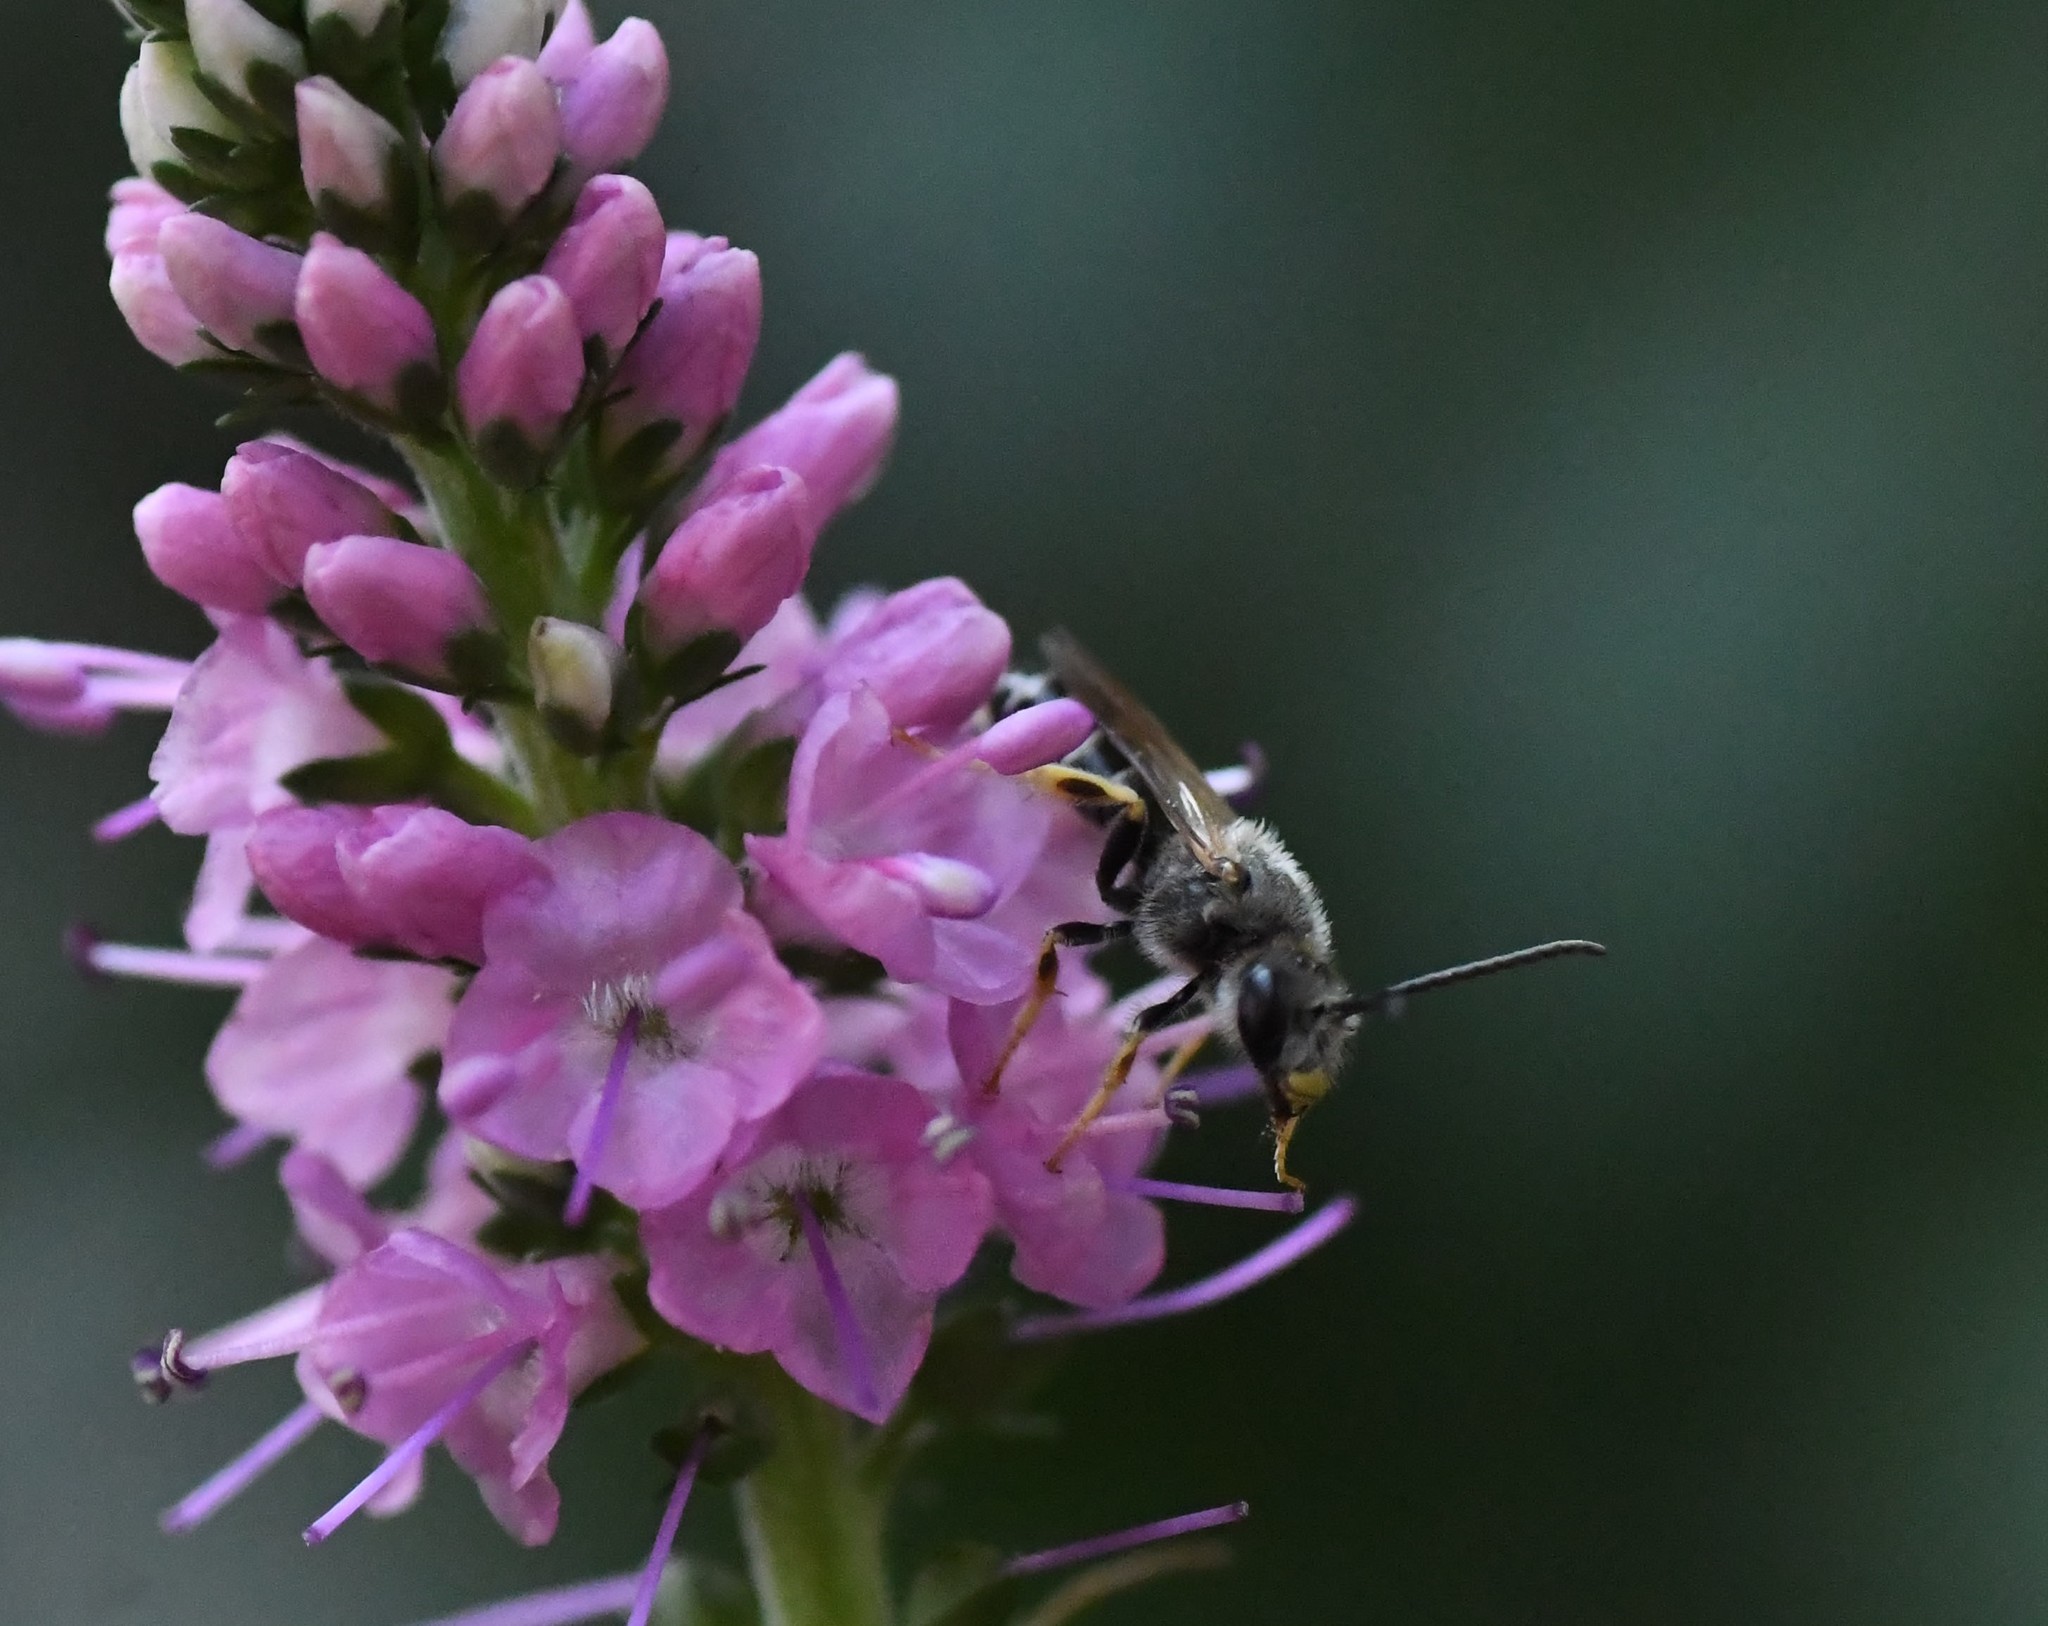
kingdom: Animalia
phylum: Arthropoda
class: Insecta
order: Hymenoptera
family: Halictidae
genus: Halictus
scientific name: Halictus rubicundus
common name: Orange-legged furrow bee
